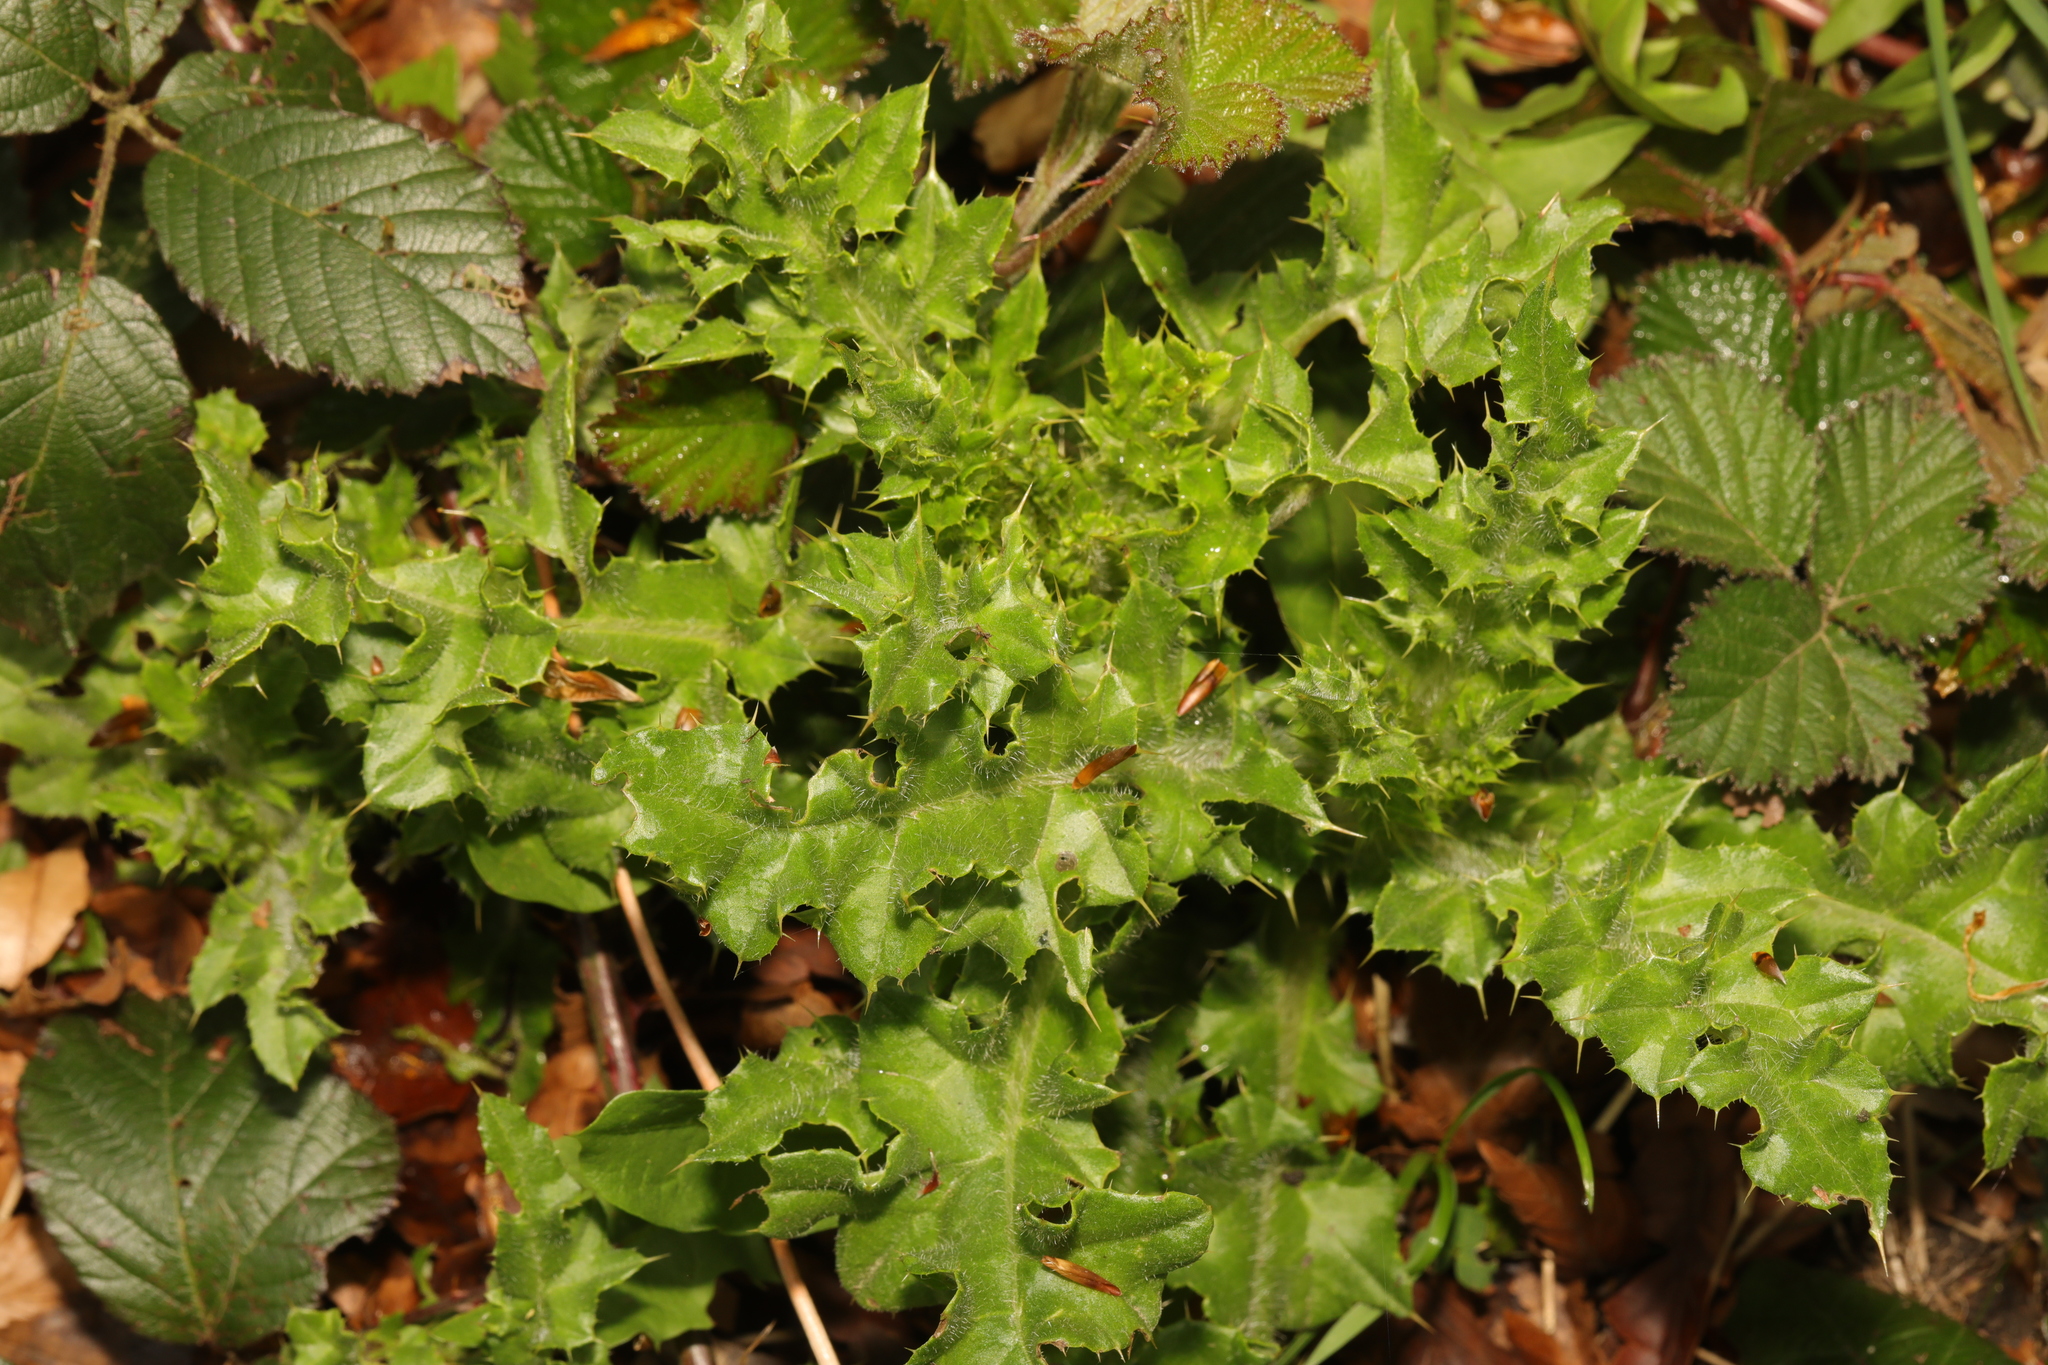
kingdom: Plantae
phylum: Tracheophyta
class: Magnoliopsida
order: Asterales
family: Asteraceae
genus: Cirsium
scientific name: Cirsium arvense
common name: Creeping thistle
